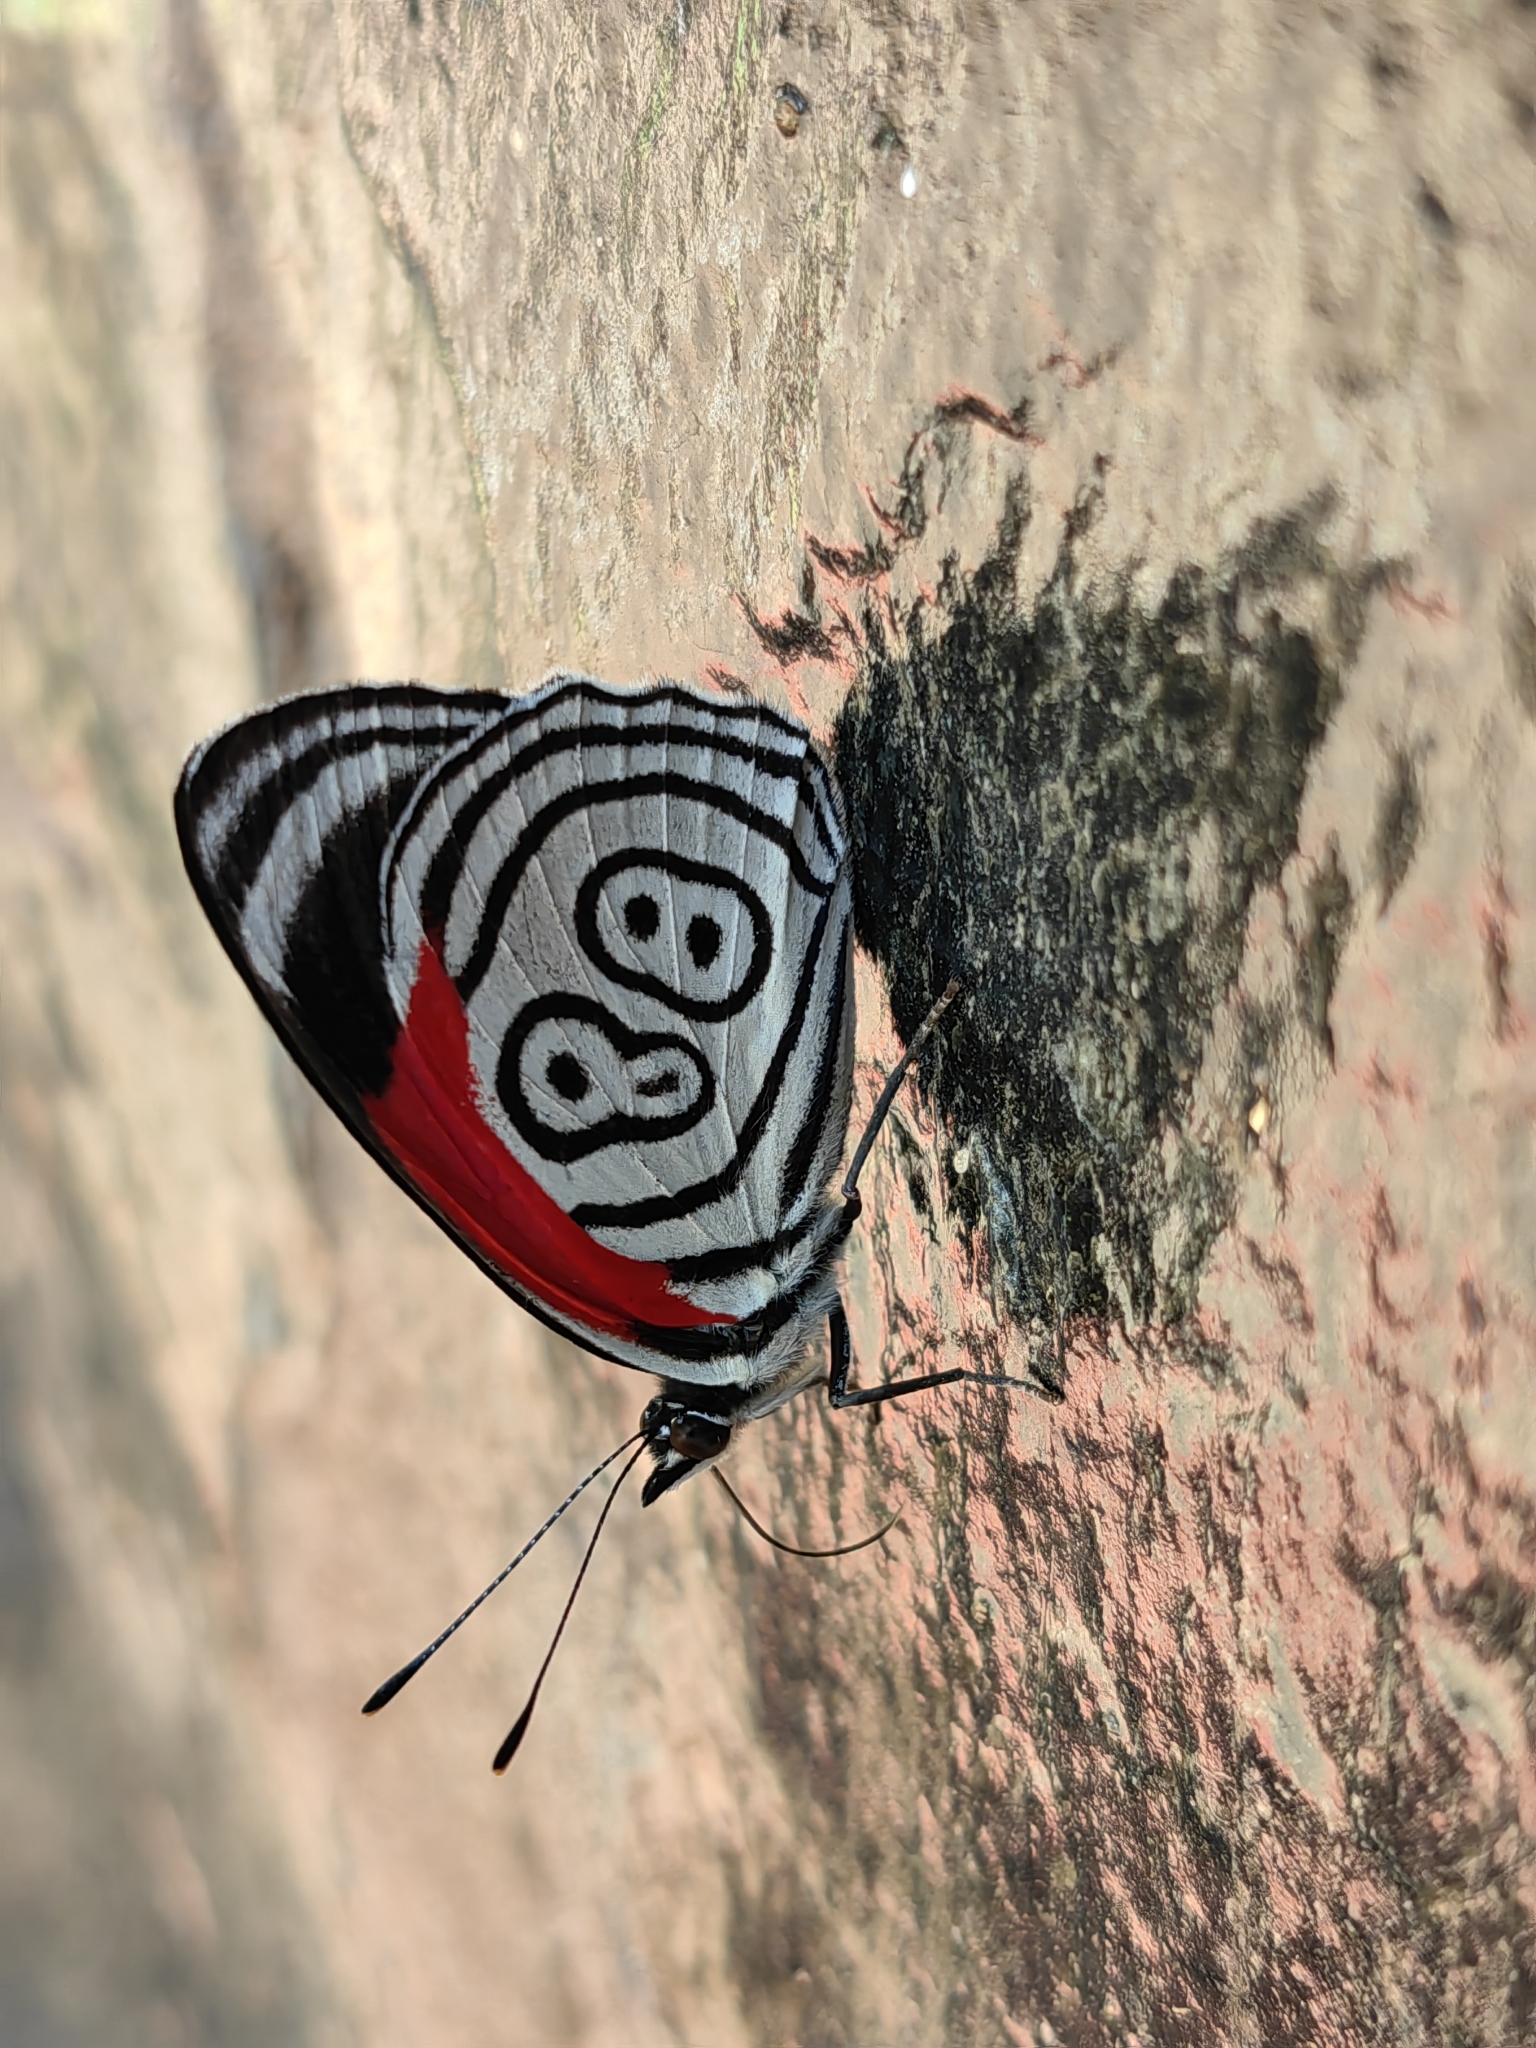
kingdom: Animalia
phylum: Arthropoda
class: Insecta
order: Lepidoptera
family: Nymphalidae
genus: Diaethria
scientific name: Diaethria clymena
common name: Widespread eighty-eight
